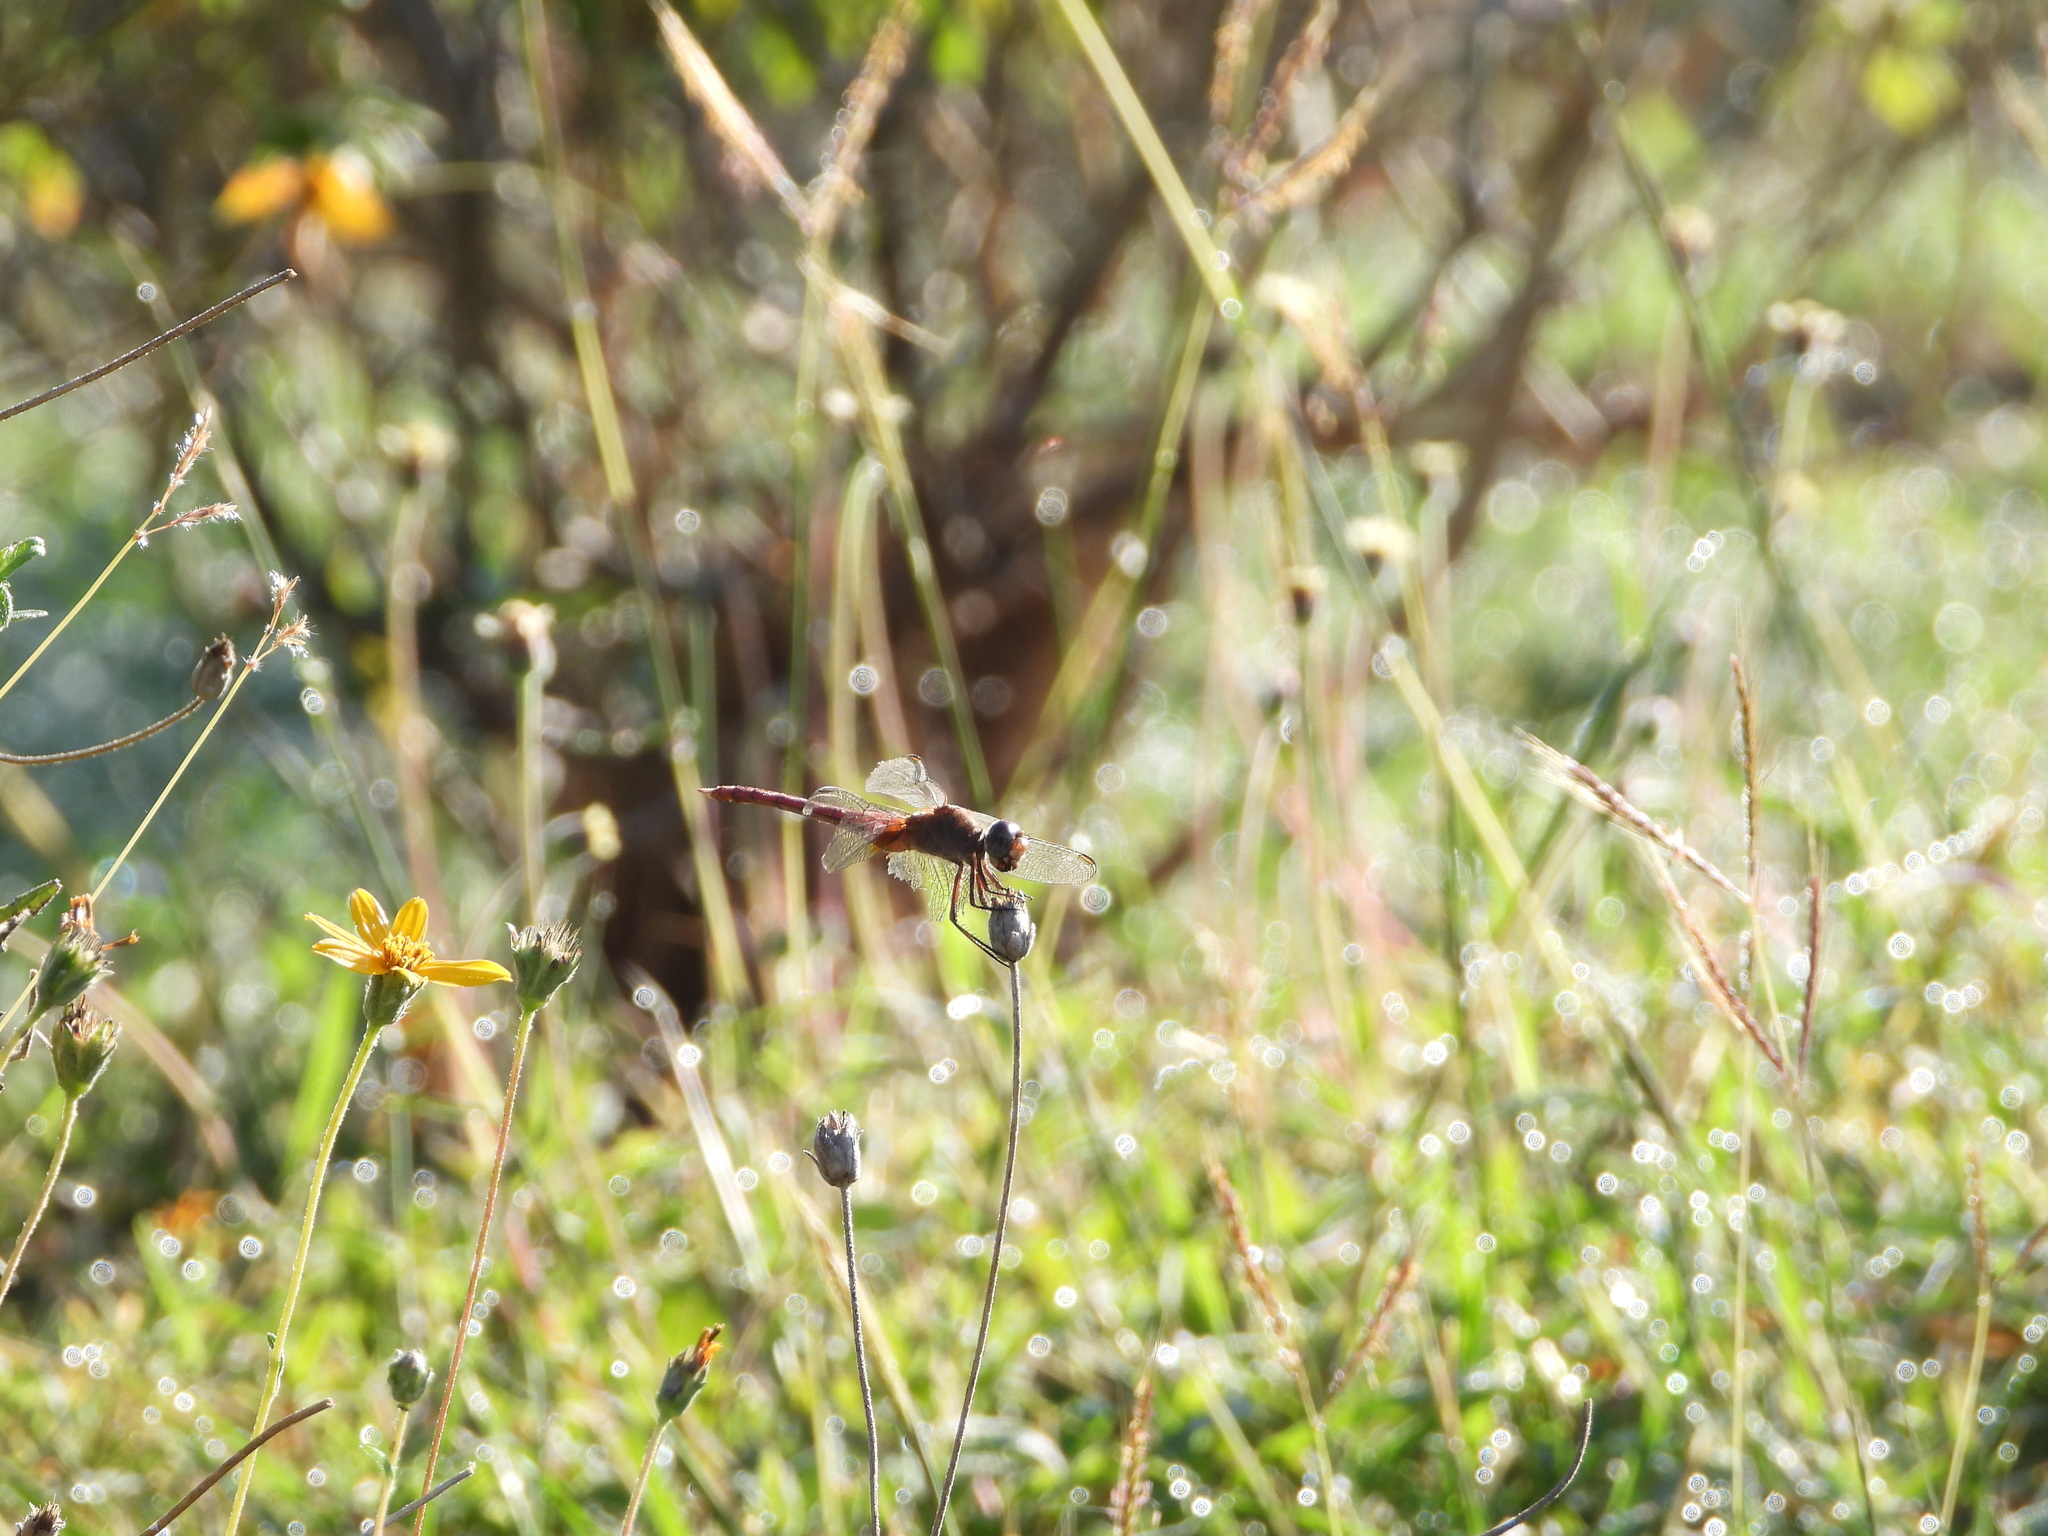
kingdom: Animalia
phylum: Arthropoda
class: Insecta
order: Odonata
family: Libellulidae
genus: Brachymesia
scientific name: Brachymesia furcata
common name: Red-taled pennant
